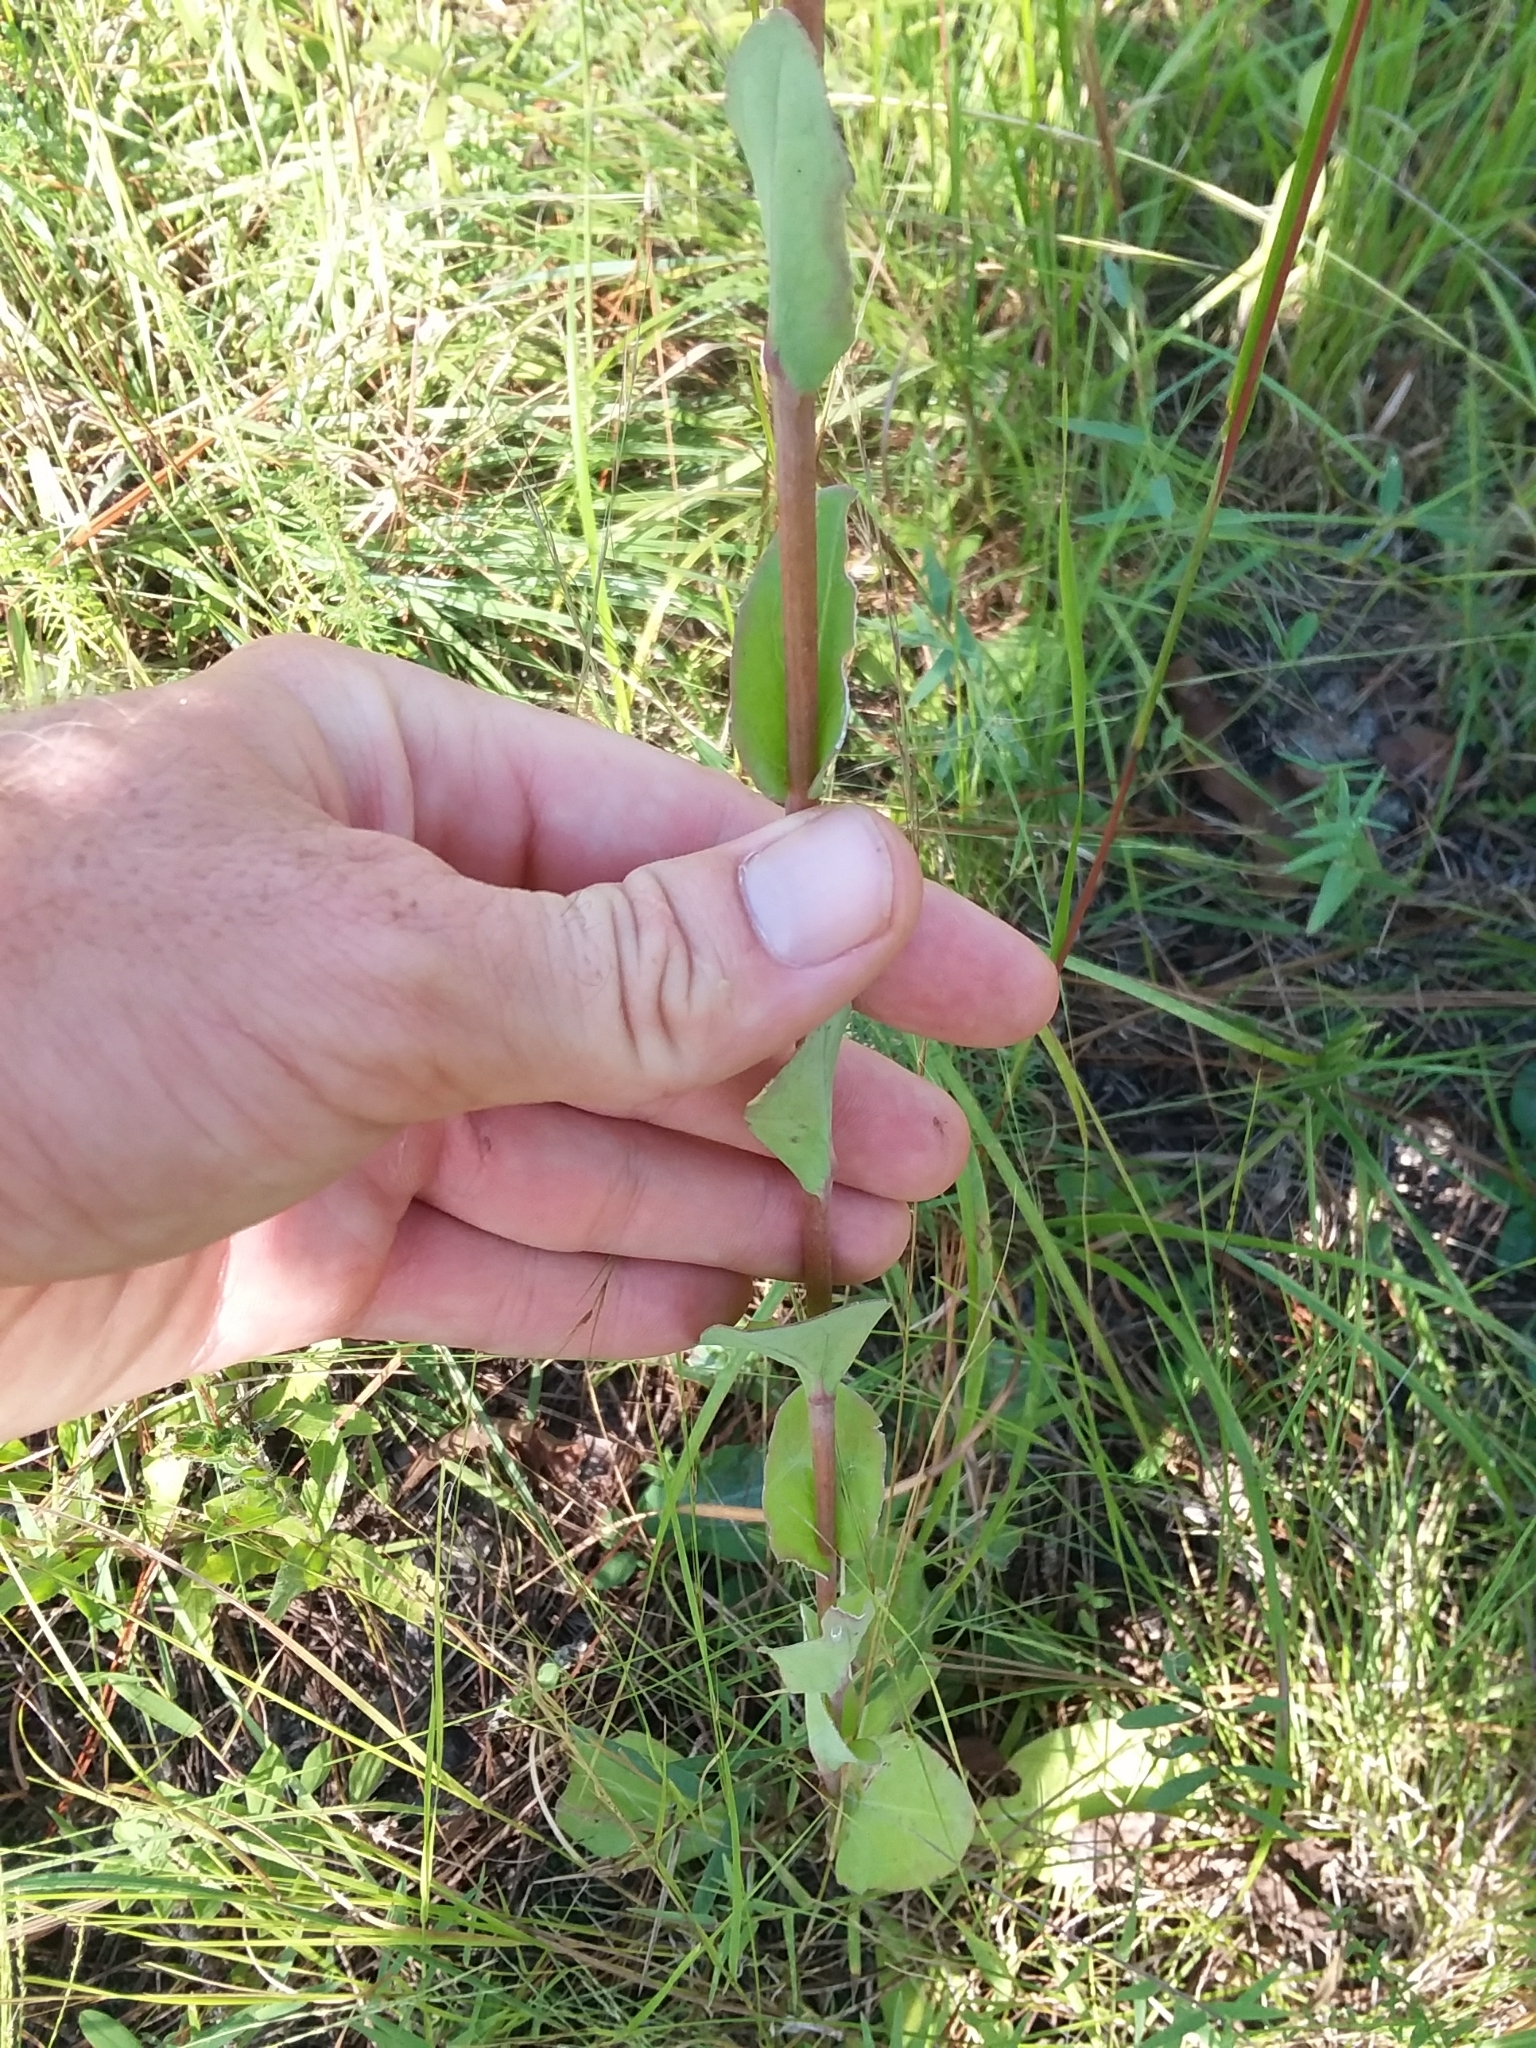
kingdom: Plantae
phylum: Tracheophyta
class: Magnoliopsida
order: Asterales
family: Asteraceae
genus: Carphephorus
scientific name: Carphephorus odoratissimus
